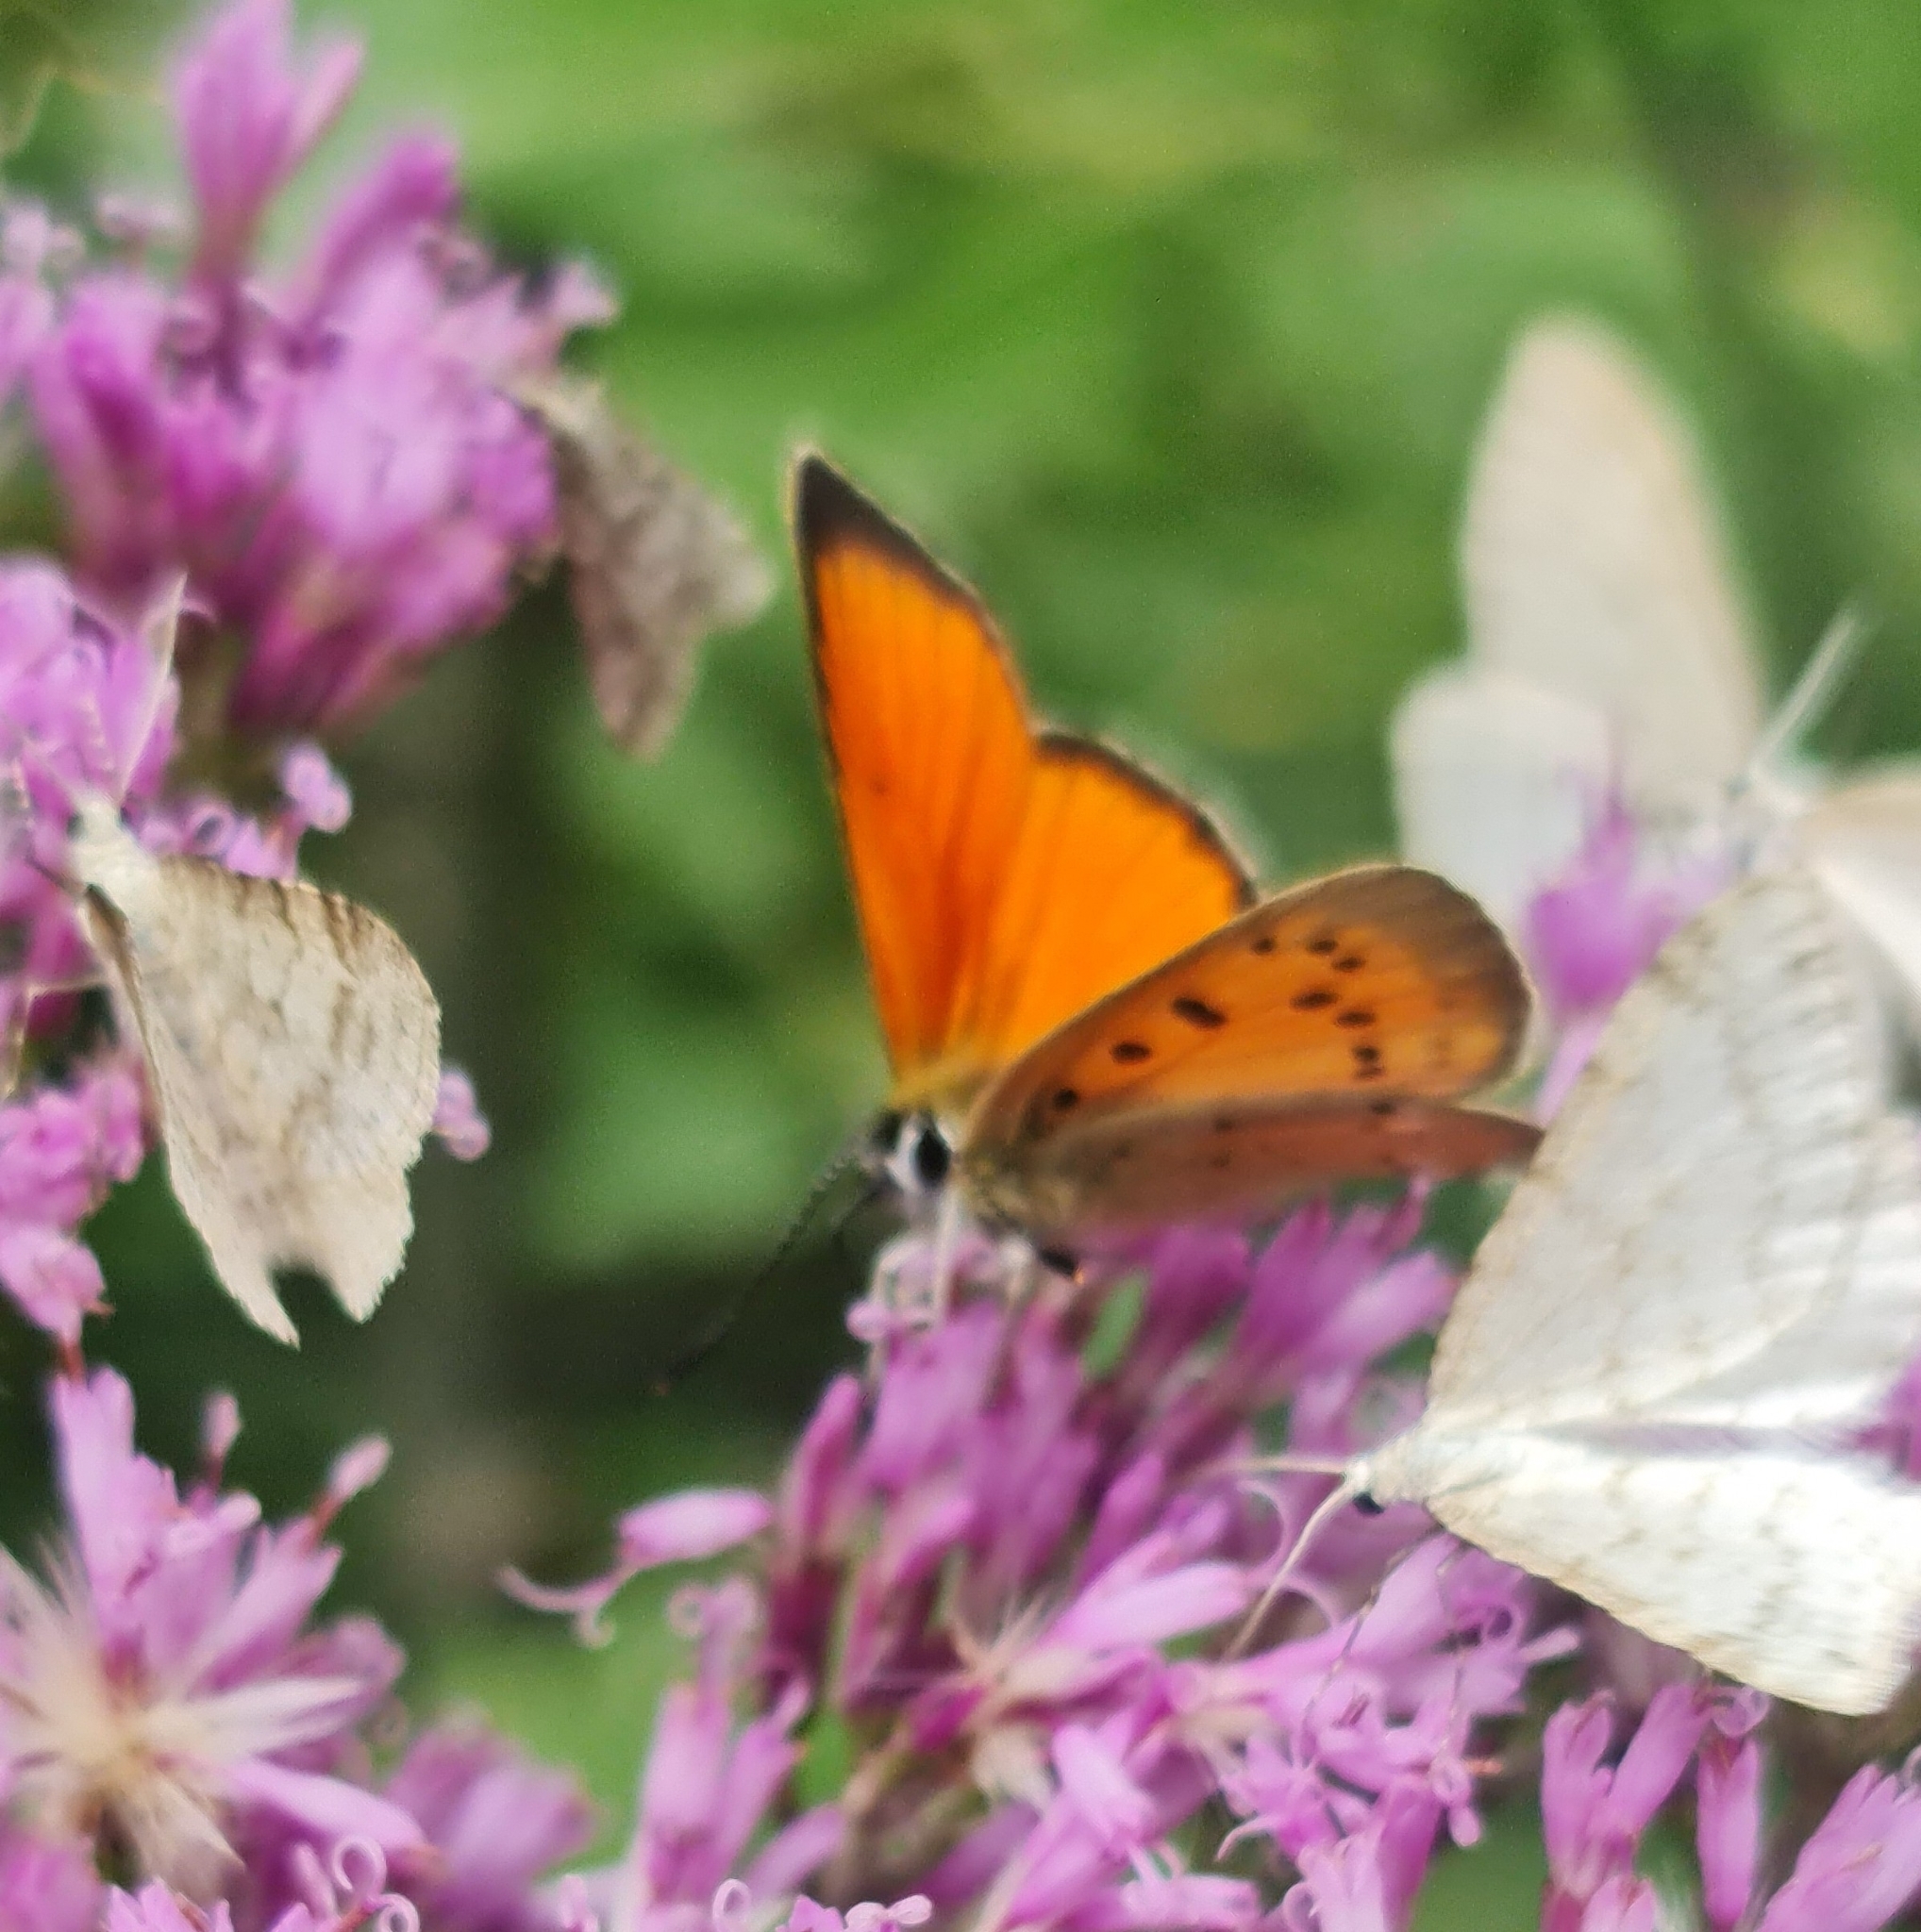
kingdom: Animalia
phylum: Arthropoda
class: Insecta
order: Lepidoptera
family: Lycaenidae
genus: Lycaena
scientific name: Lycaena virgaureae
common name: Scarce copper
